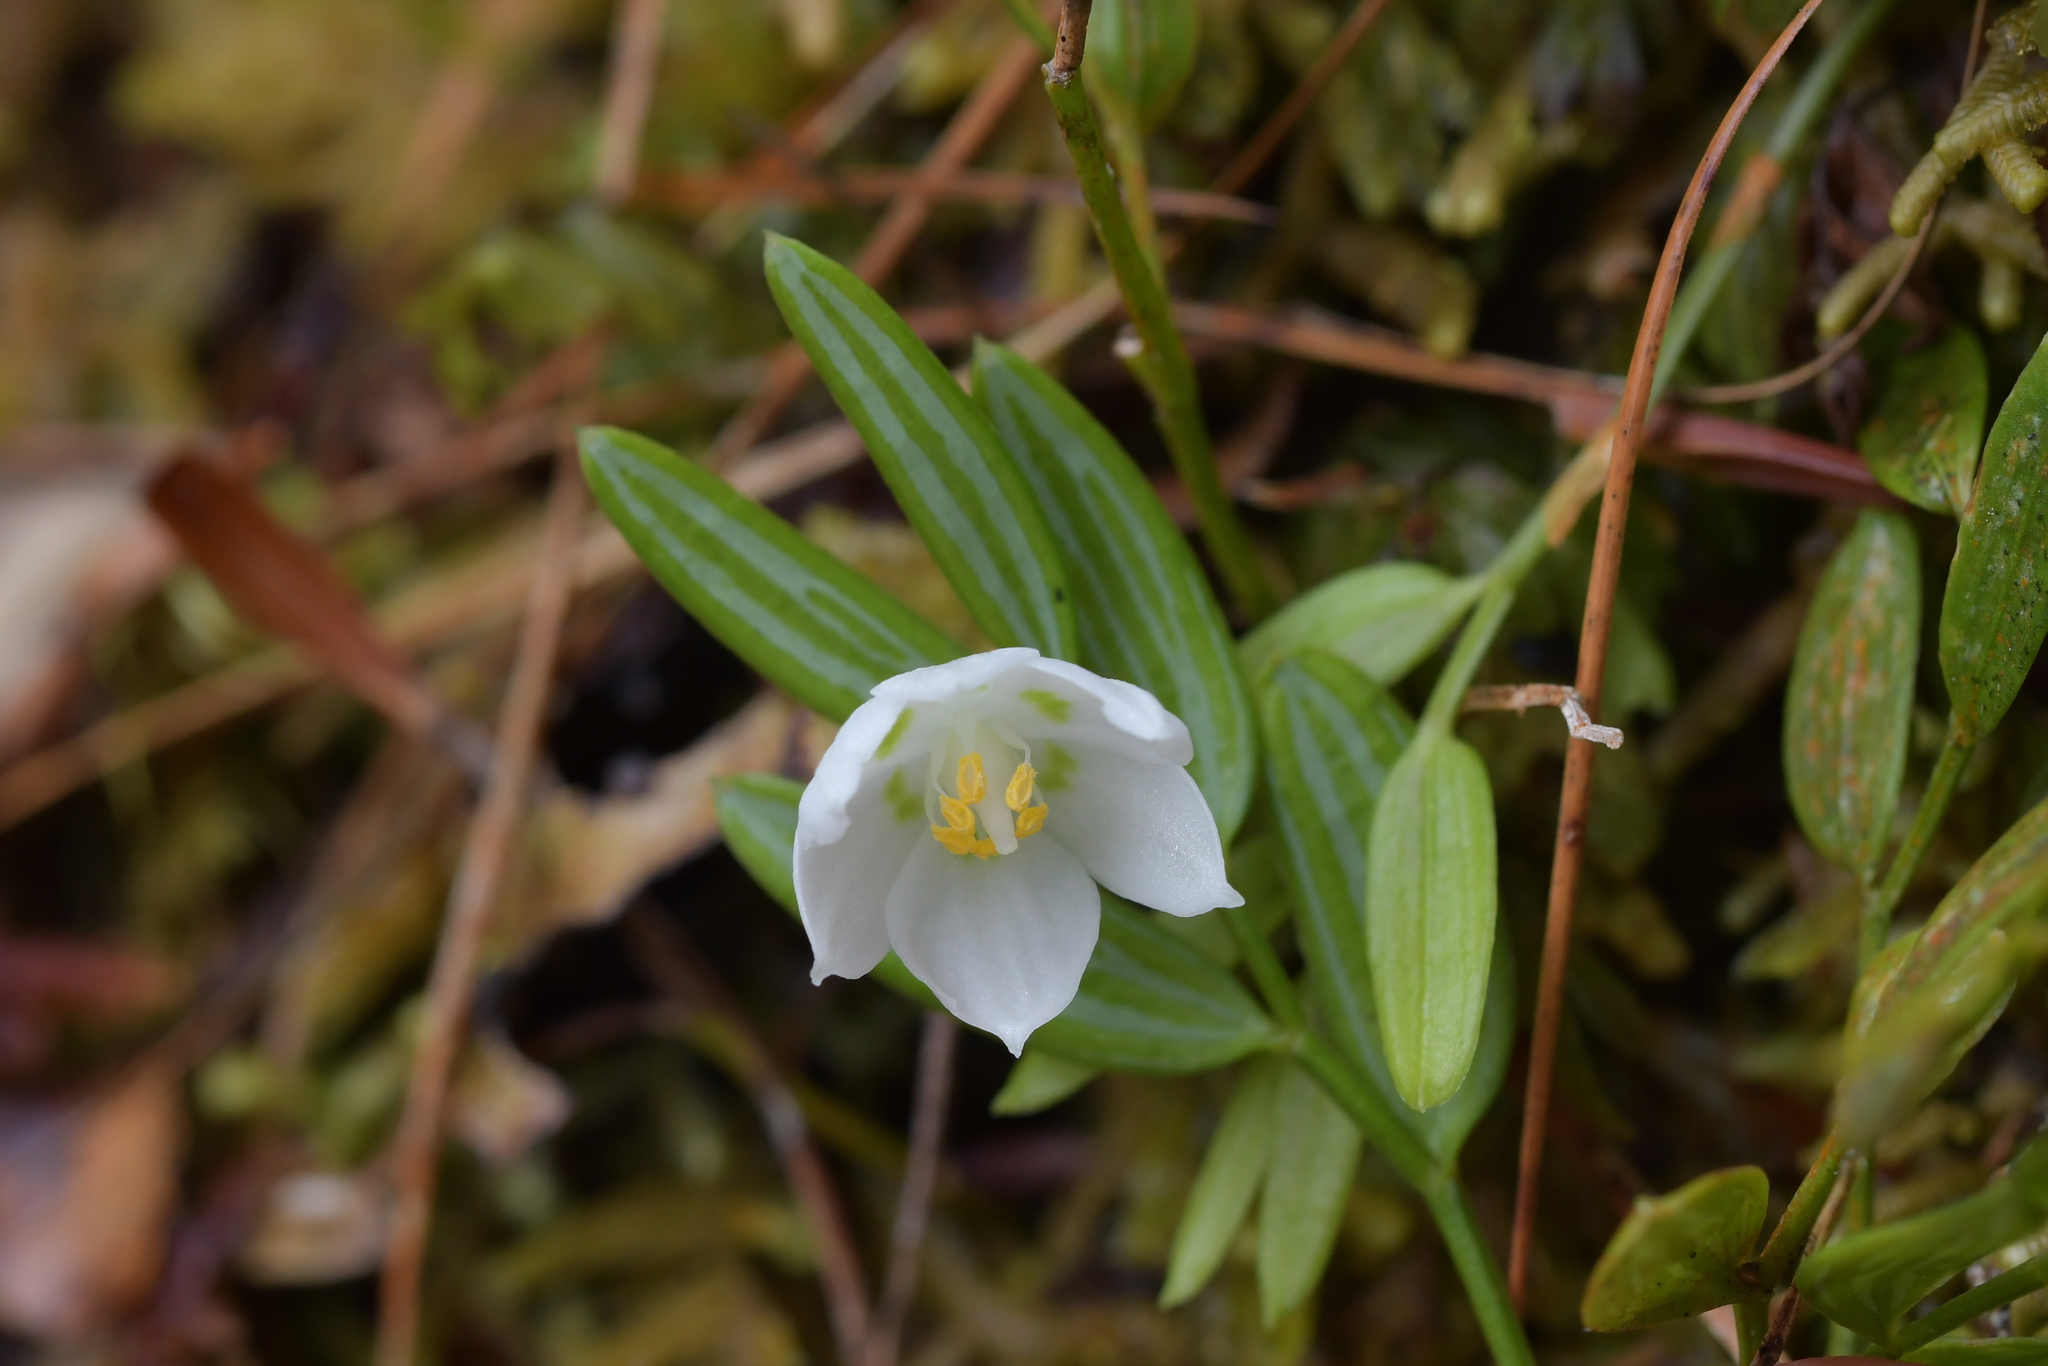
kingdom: Plantae
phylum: Tracheophyta
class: Liliopsida
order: Liliales
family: Alstroemeriaceae
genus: Luzuriaga
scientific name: Luzuriaga parviflora
